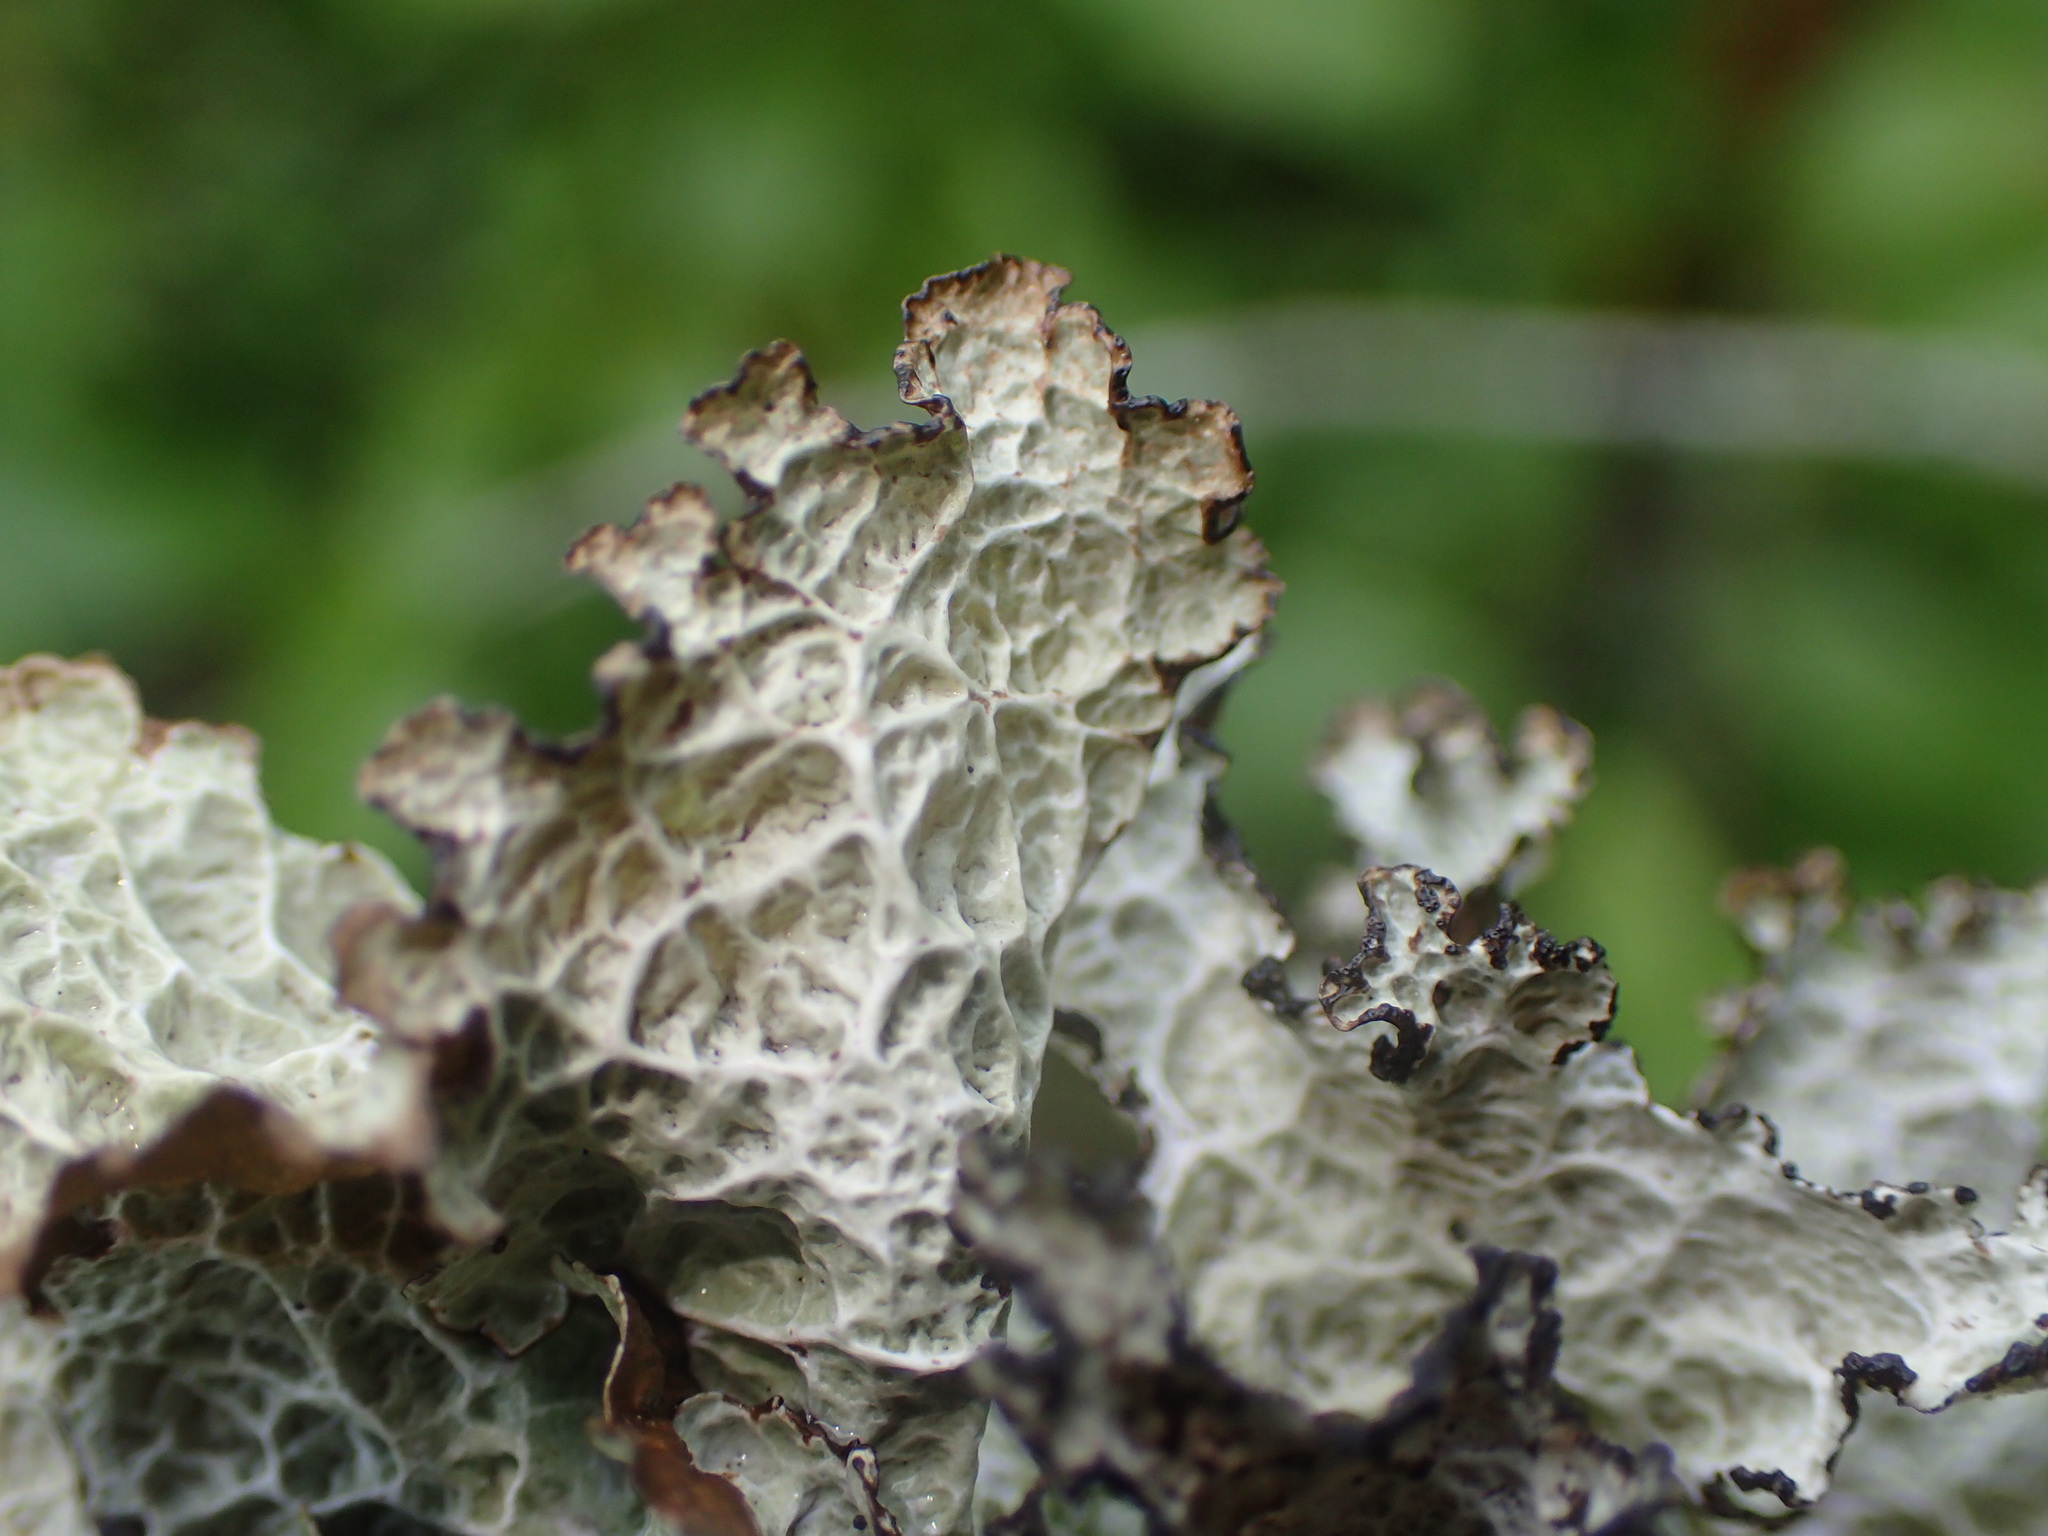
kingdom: Fungi
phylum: Ascomycota
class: Lecanoromycetes
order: Lecanorales
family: Parmeliaceae
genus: Platismatia
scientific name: Platismatia tuckermanii
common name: Crumpled rag lichen
